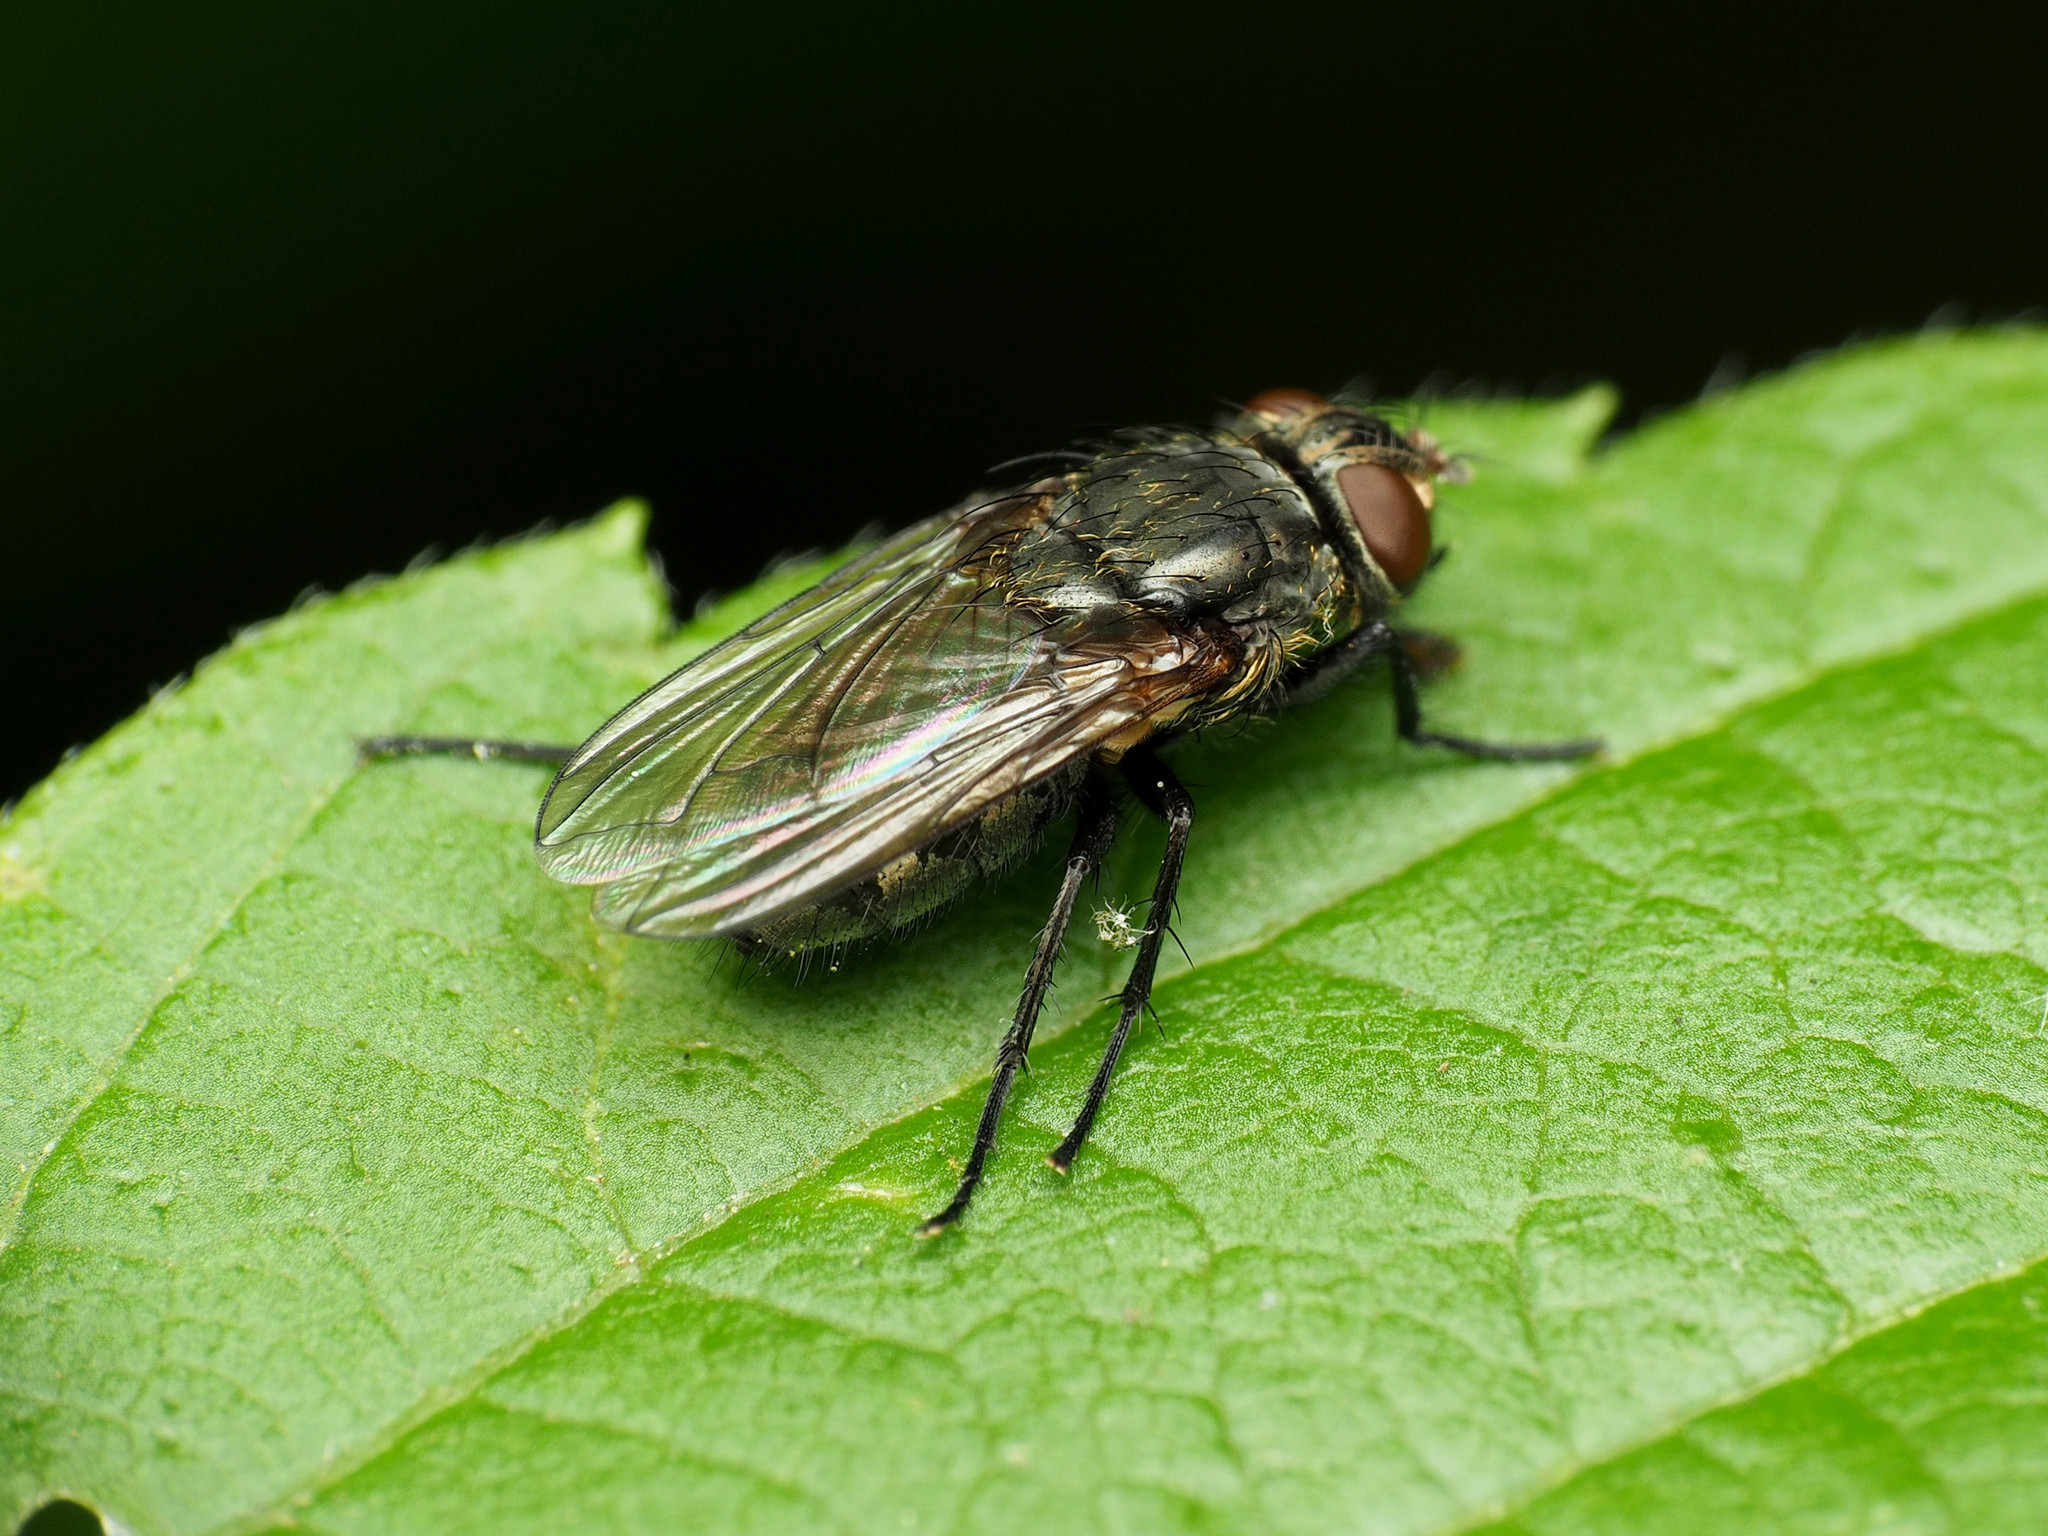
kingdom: Animalia
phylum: Arthropoda
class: Insecta
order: Diptera
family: Polleniidae
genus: Pollenia
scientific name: Pollenia
